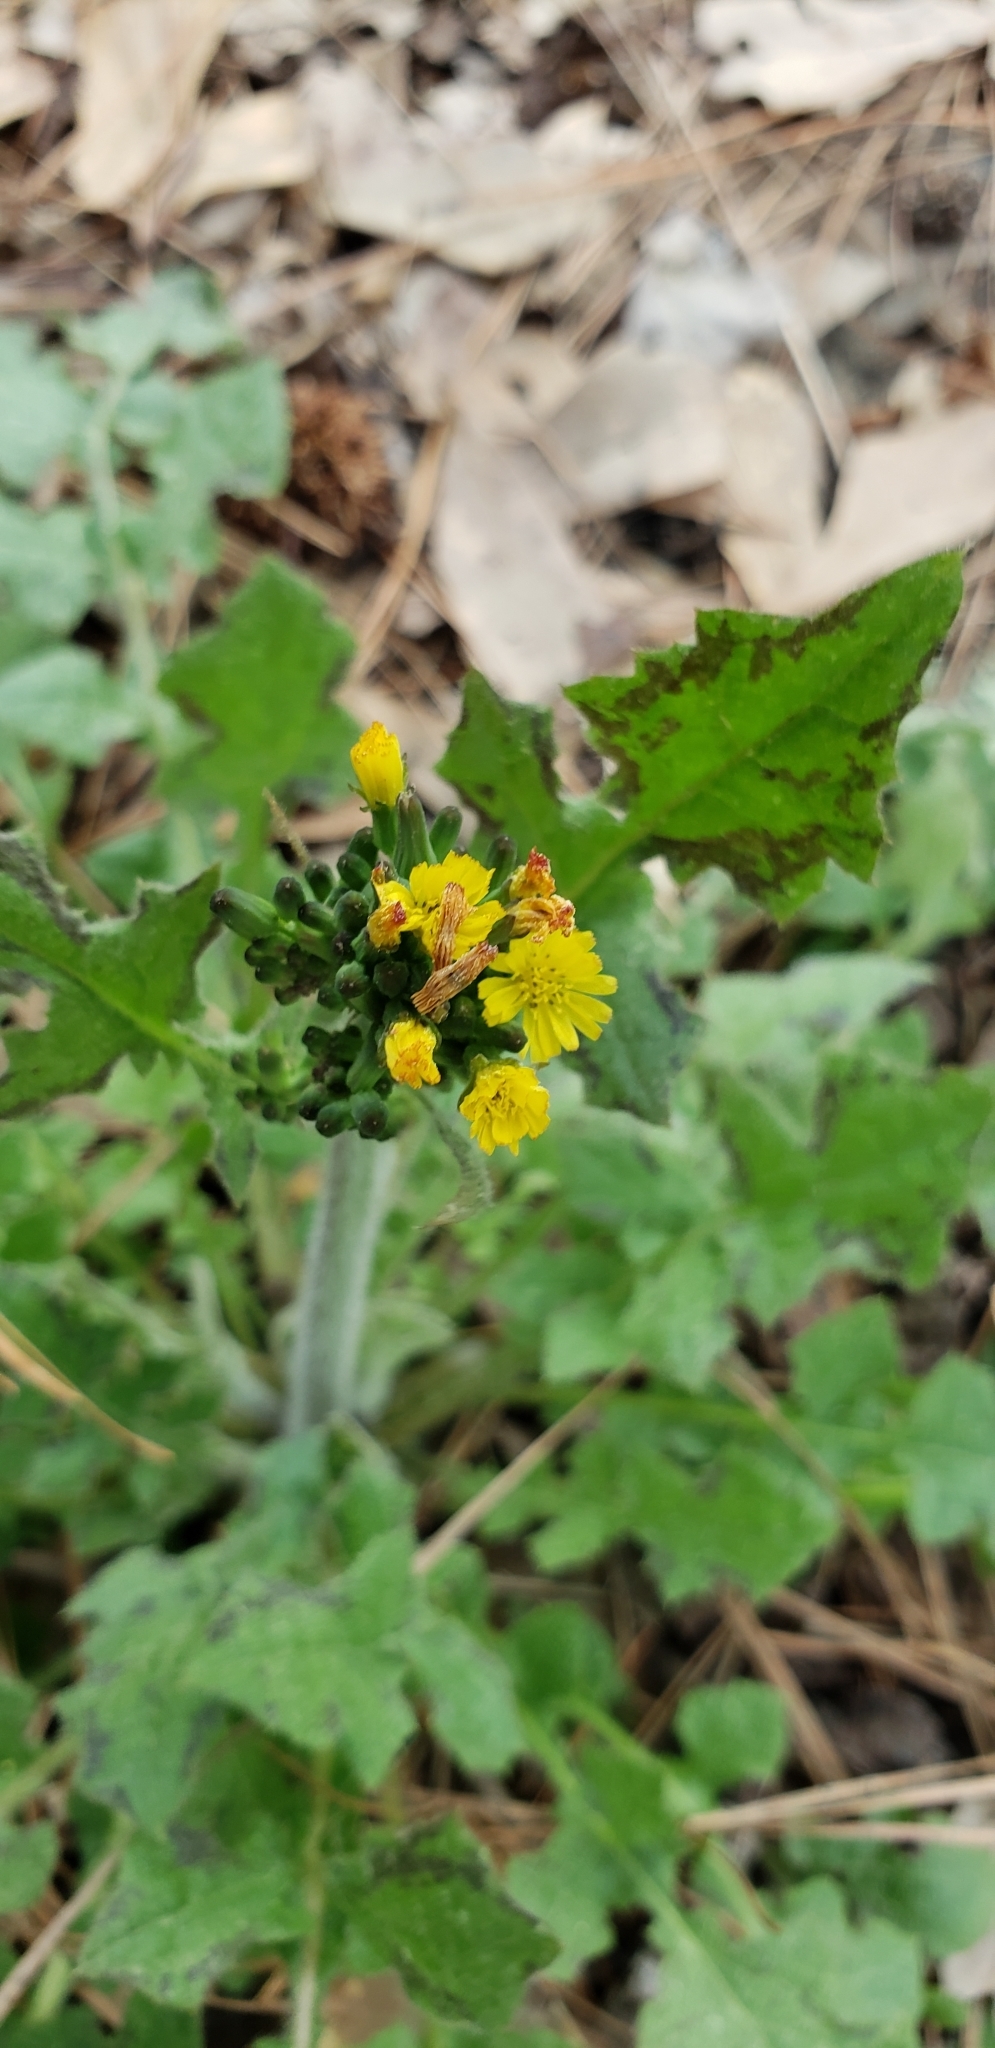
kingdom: Plantae
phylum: Tracheophyta
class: Magnoliopsida
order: Asterales
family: Asteraceae
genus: Youngia
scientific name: Youngia japonica
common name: Oriental false hawksbeard
